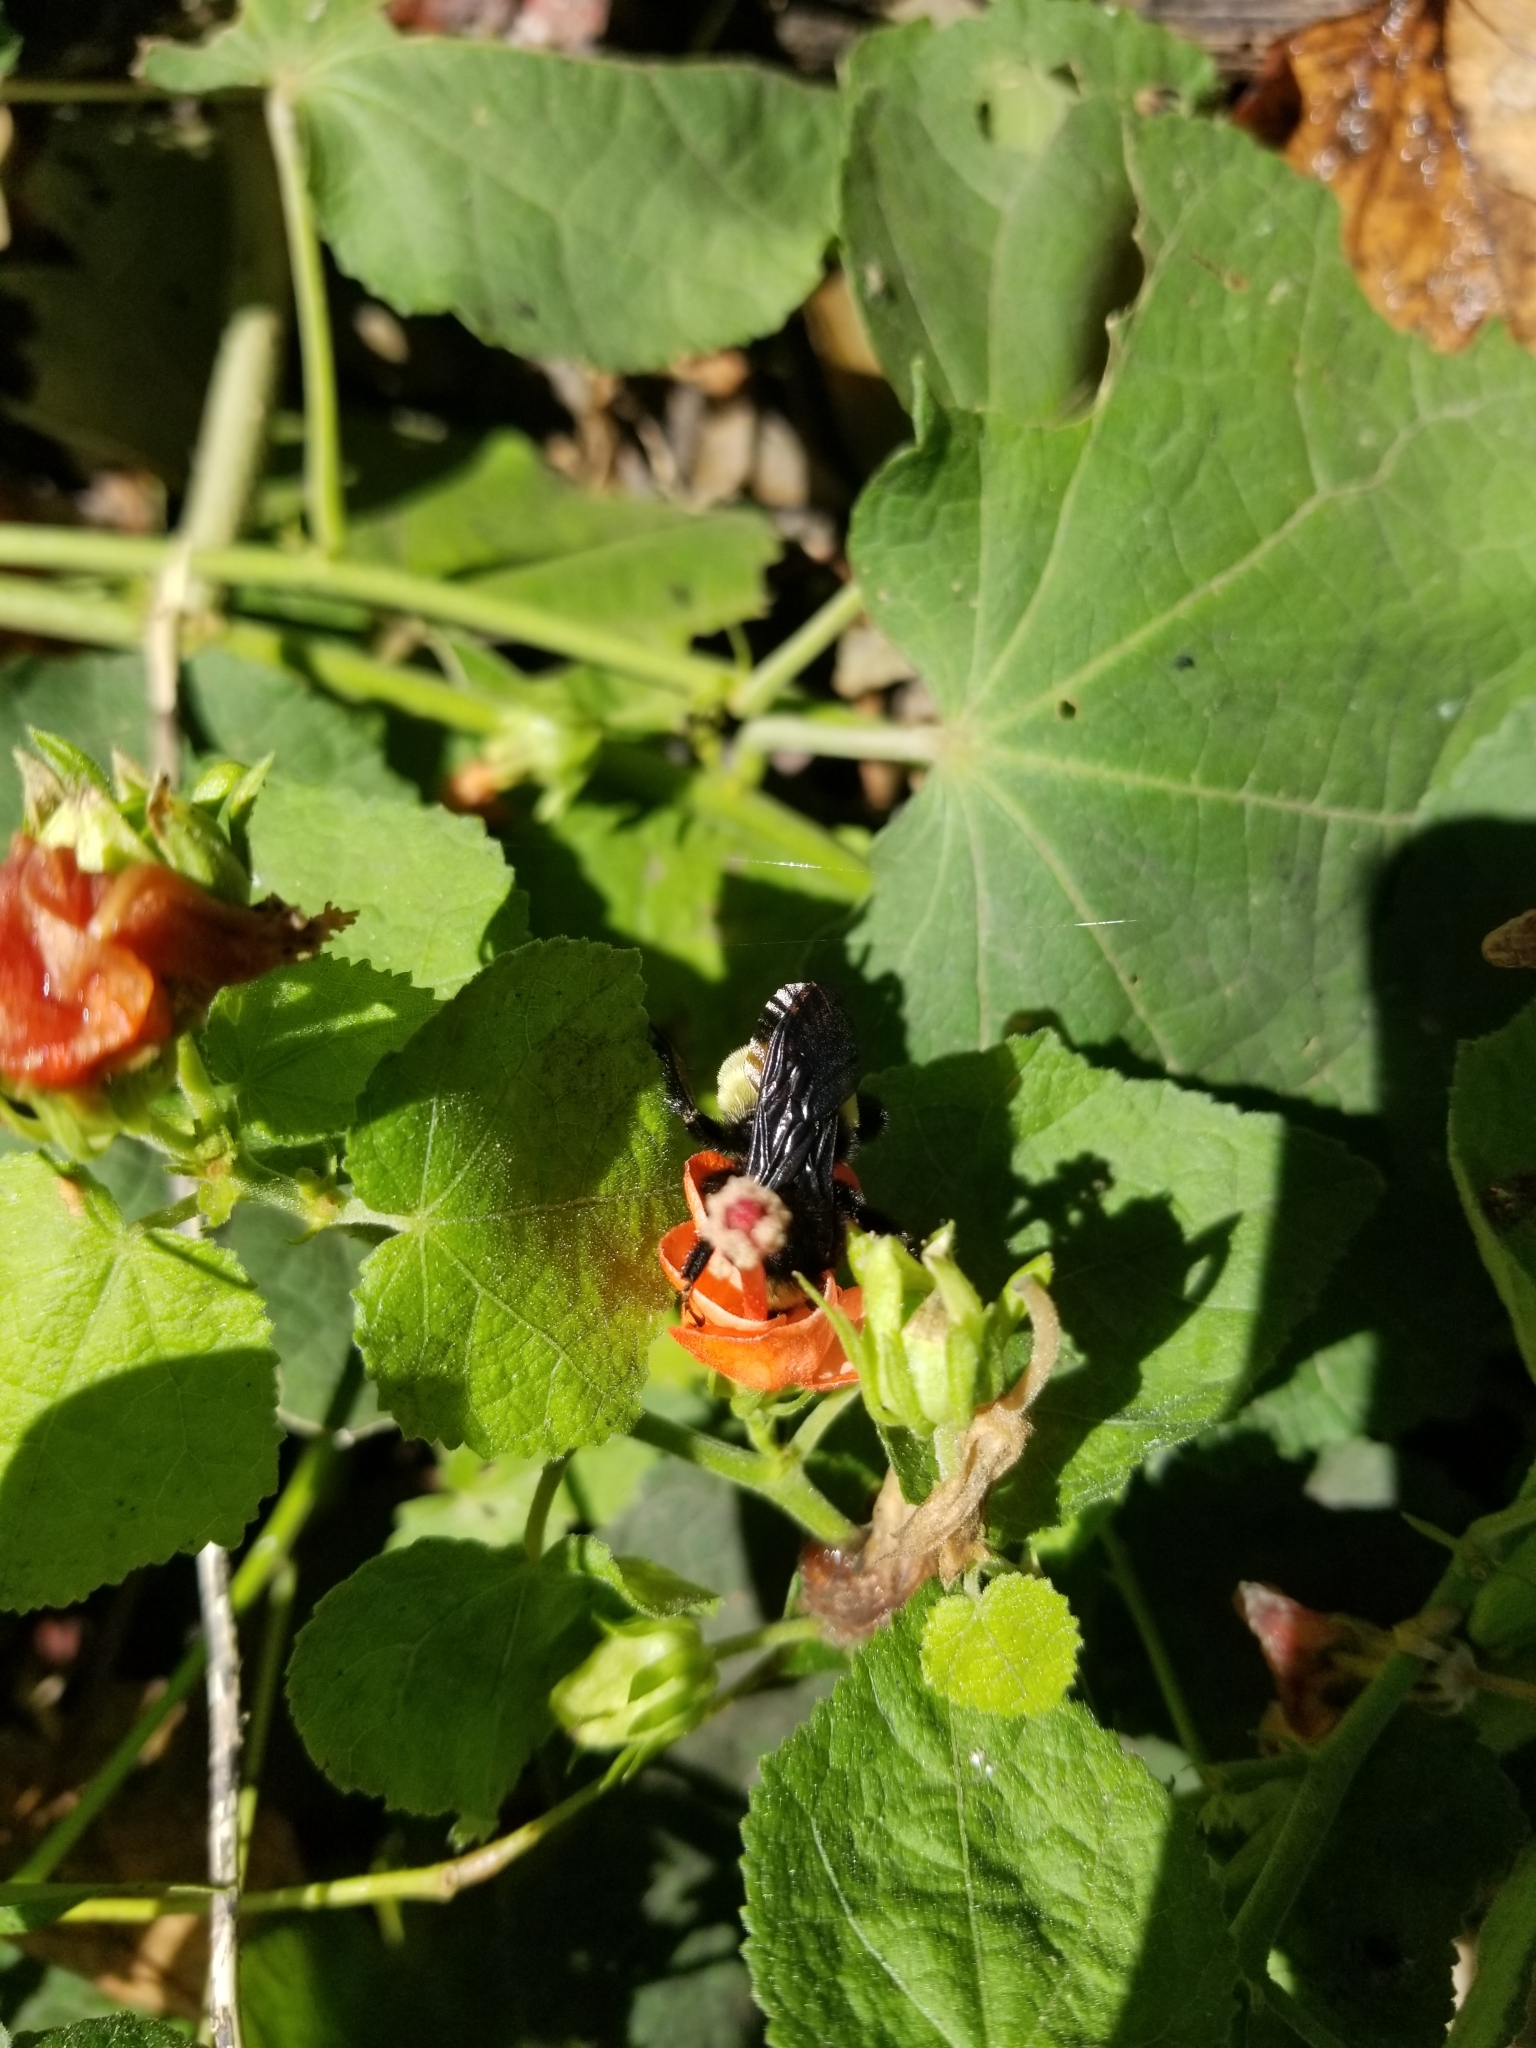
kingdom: Plantae
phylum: Tracheophyta
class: Magnoliopsida
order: Malvales
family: Malvaceae
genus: Malvaviscus
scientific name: Malvaviscus arboreus
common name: Wax mallow
